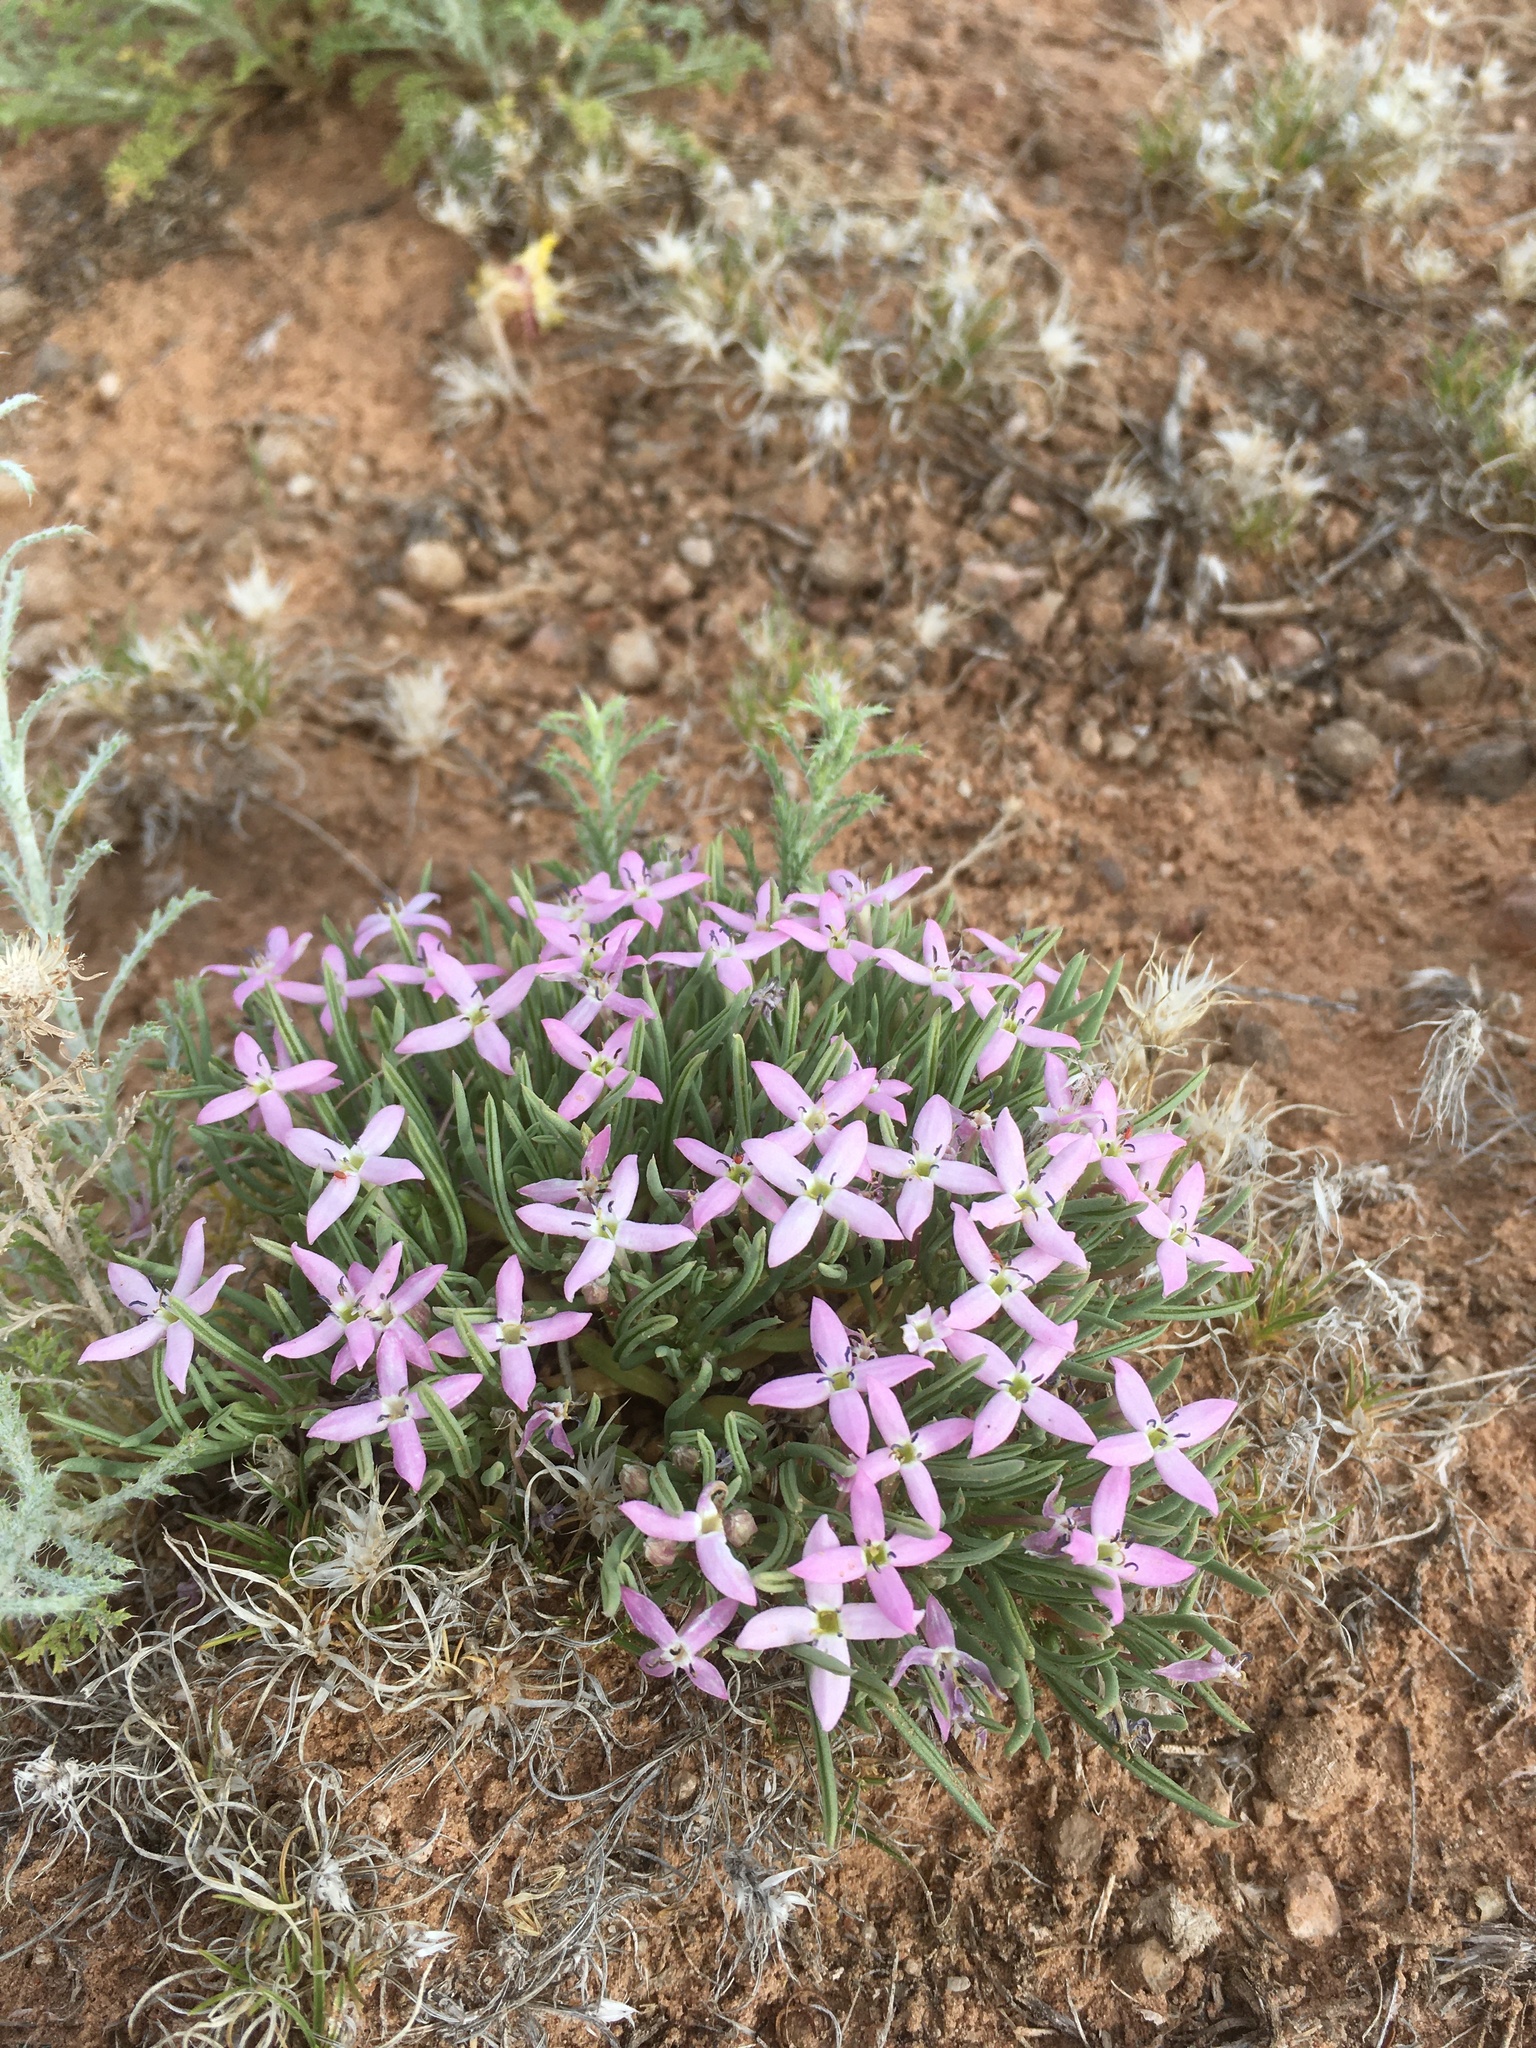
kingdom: Plantae
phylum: Tracheophyta
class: Magnoliopsida
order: Gentianales
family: Rubiaceae
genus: Houstonia
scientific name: Houstonia rubra
